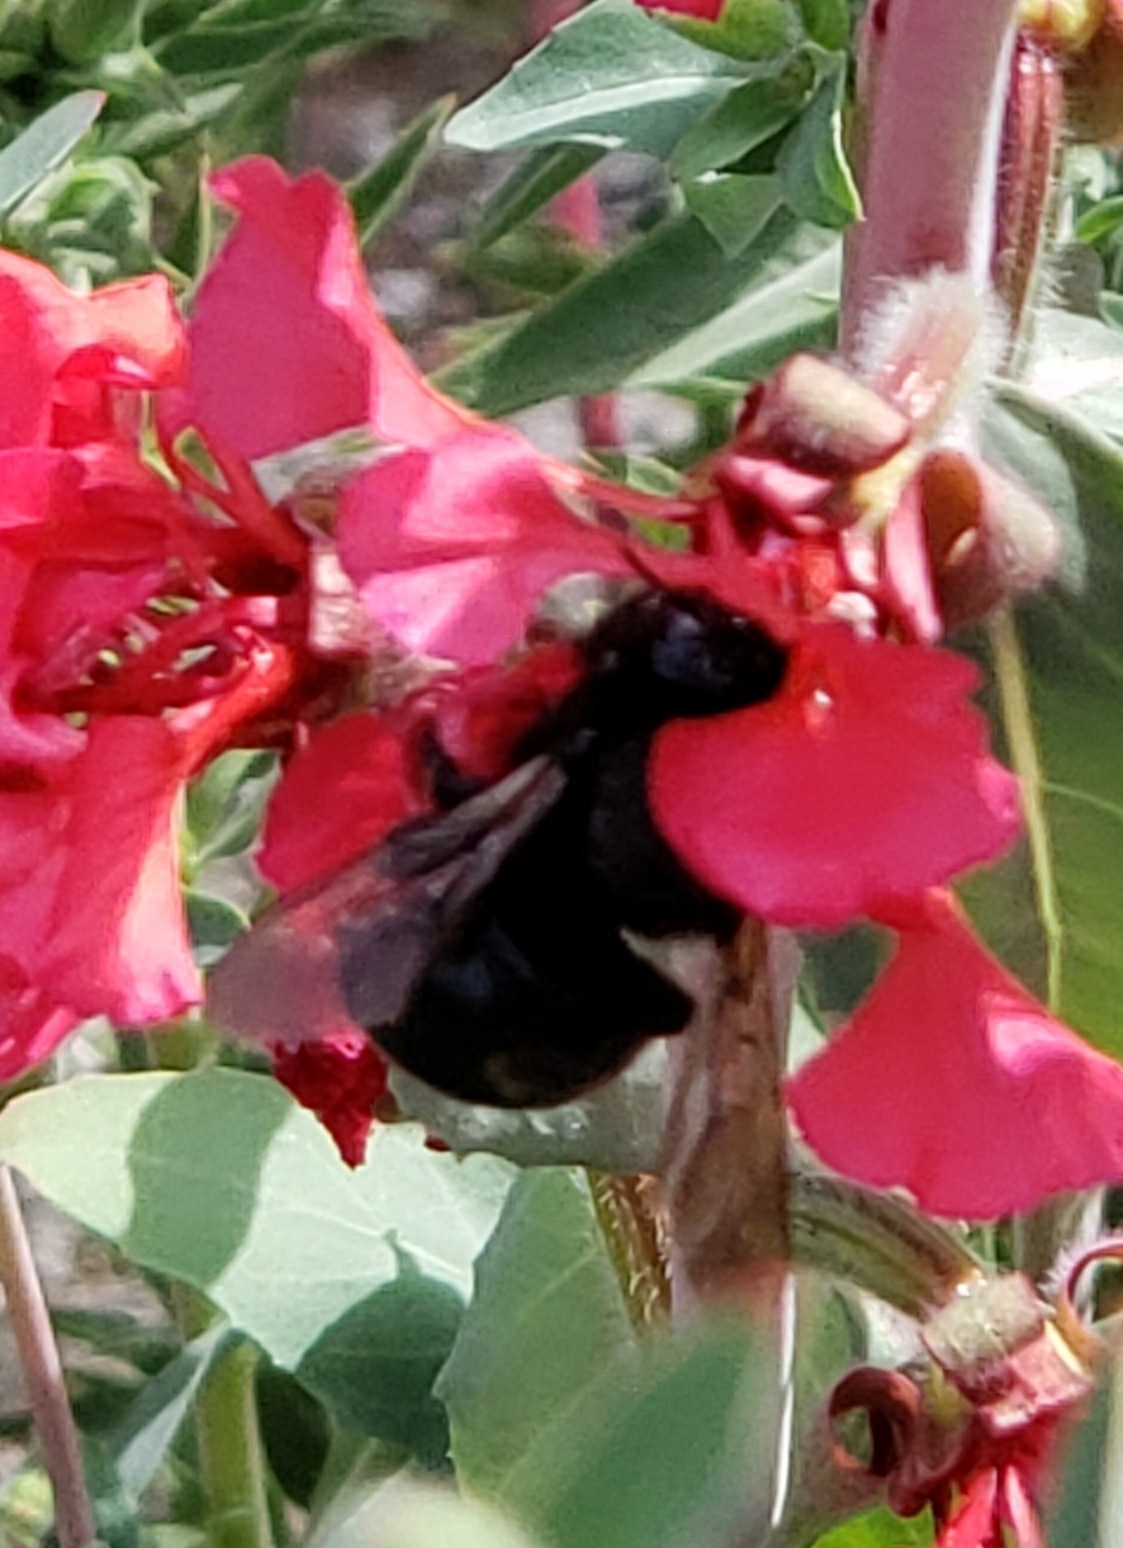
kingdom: Animalia
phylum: Arthropoda
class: Insecta
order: Hymenoptera
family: Apidae
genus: Xylocopa
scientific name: Xylocopa tabaniformis
